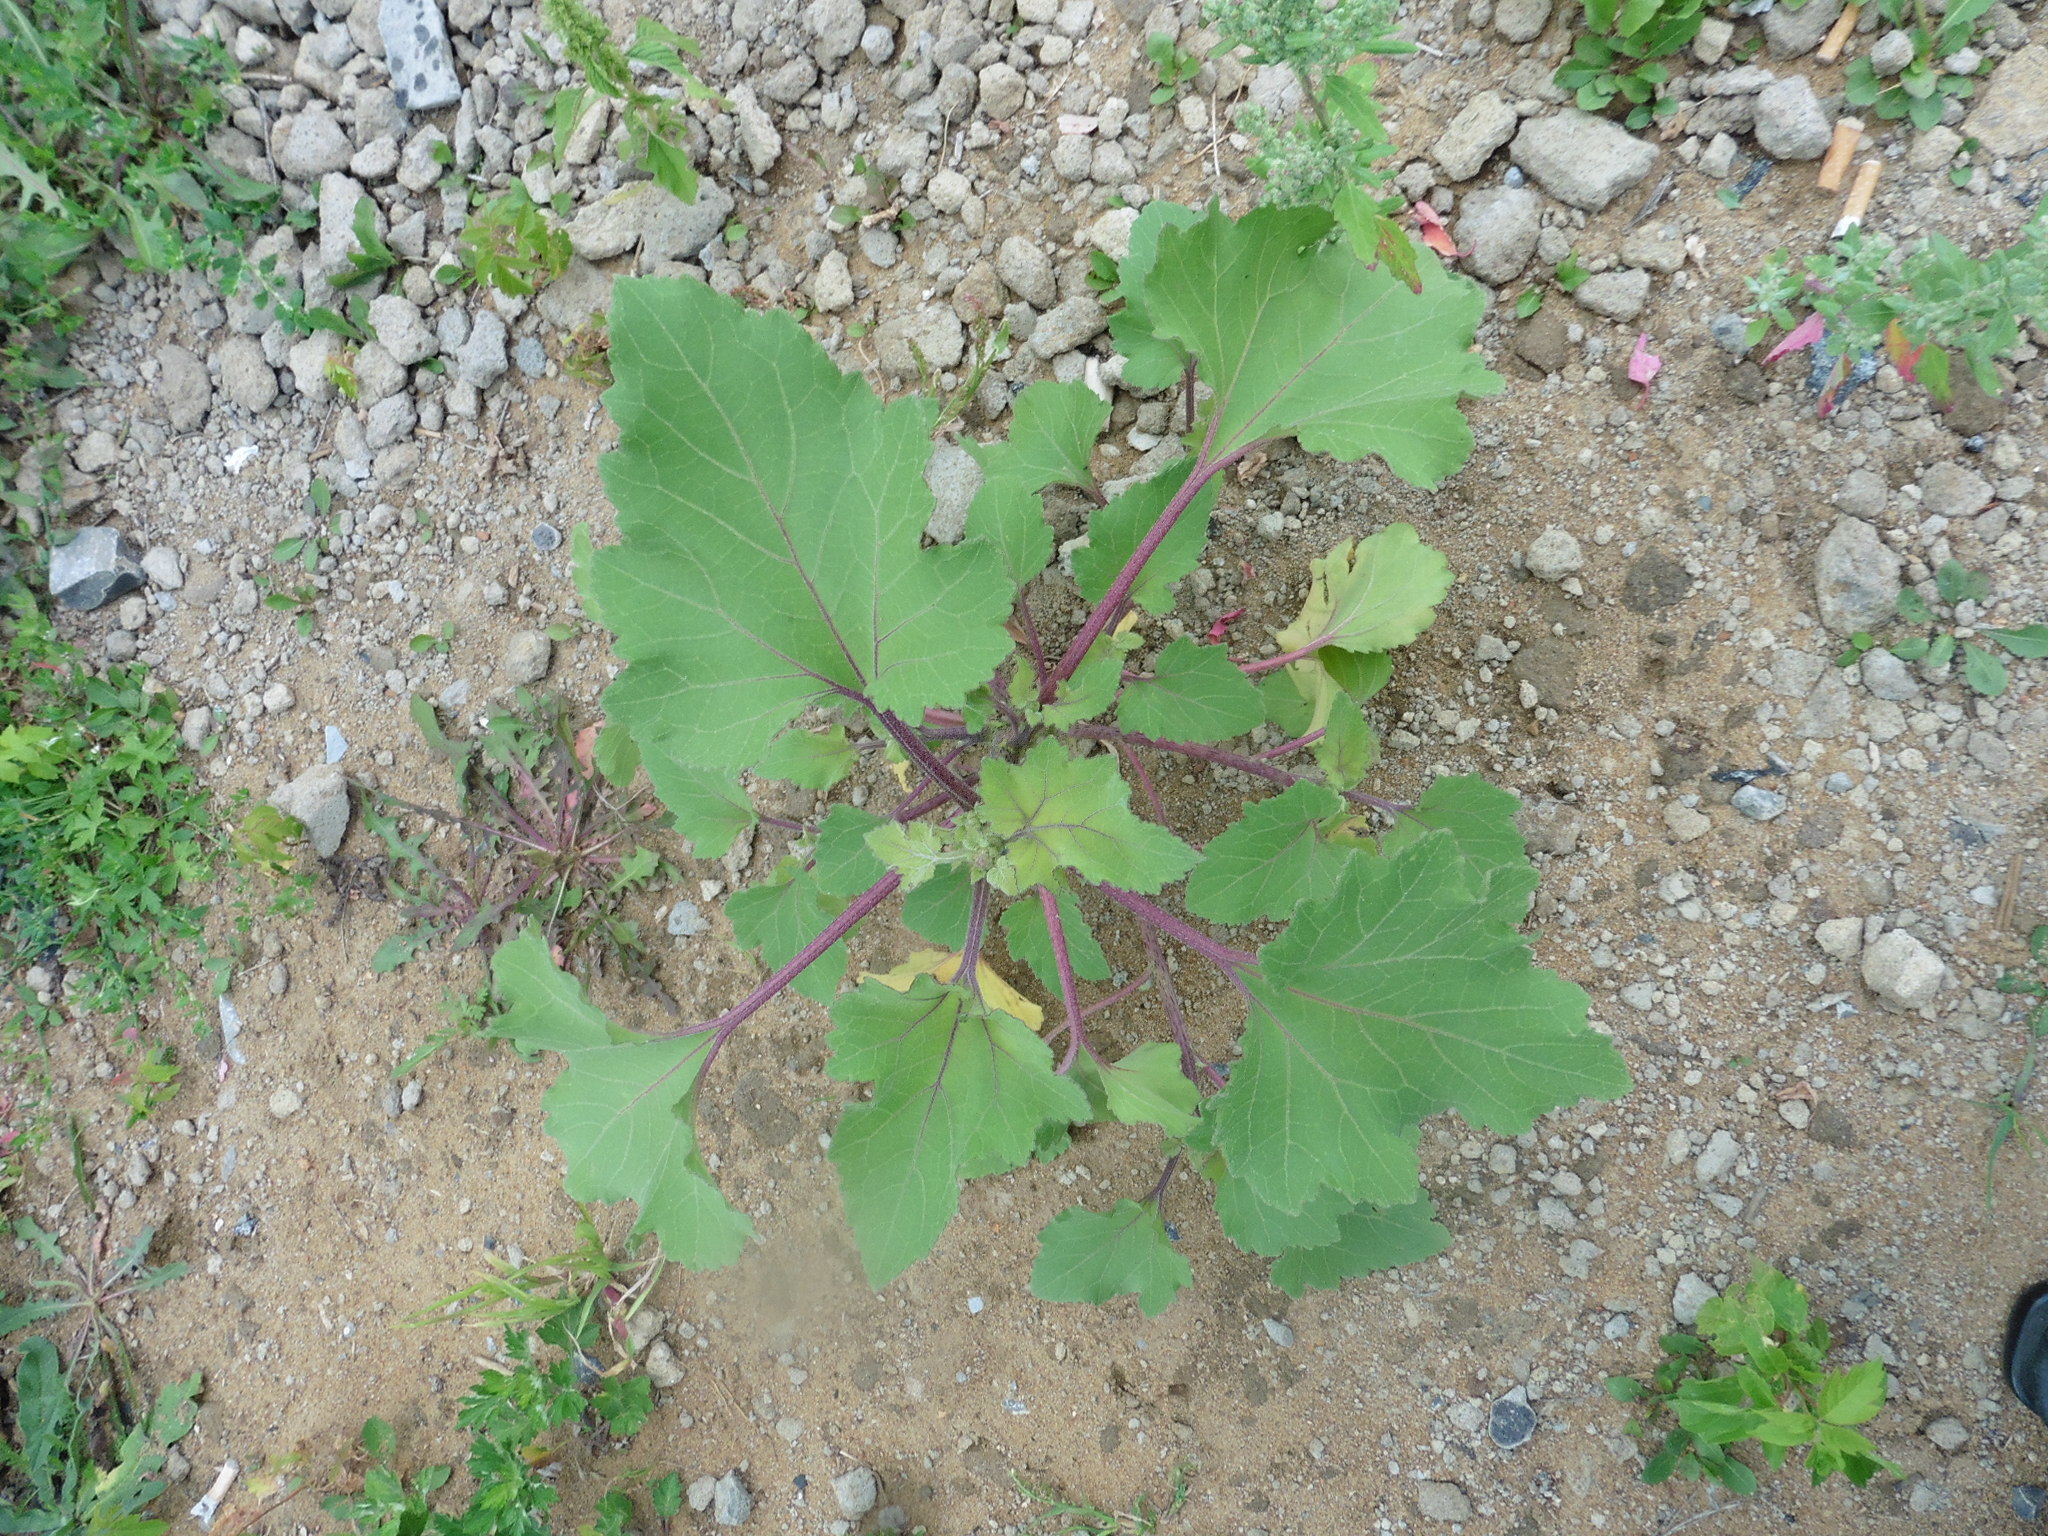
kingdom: Plantae
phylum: Tracheophyta
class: Magnoliopsida
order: Asterales
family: Asteraceae
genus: Xanthium
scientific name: Xanthium orientale
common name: Californian burr
